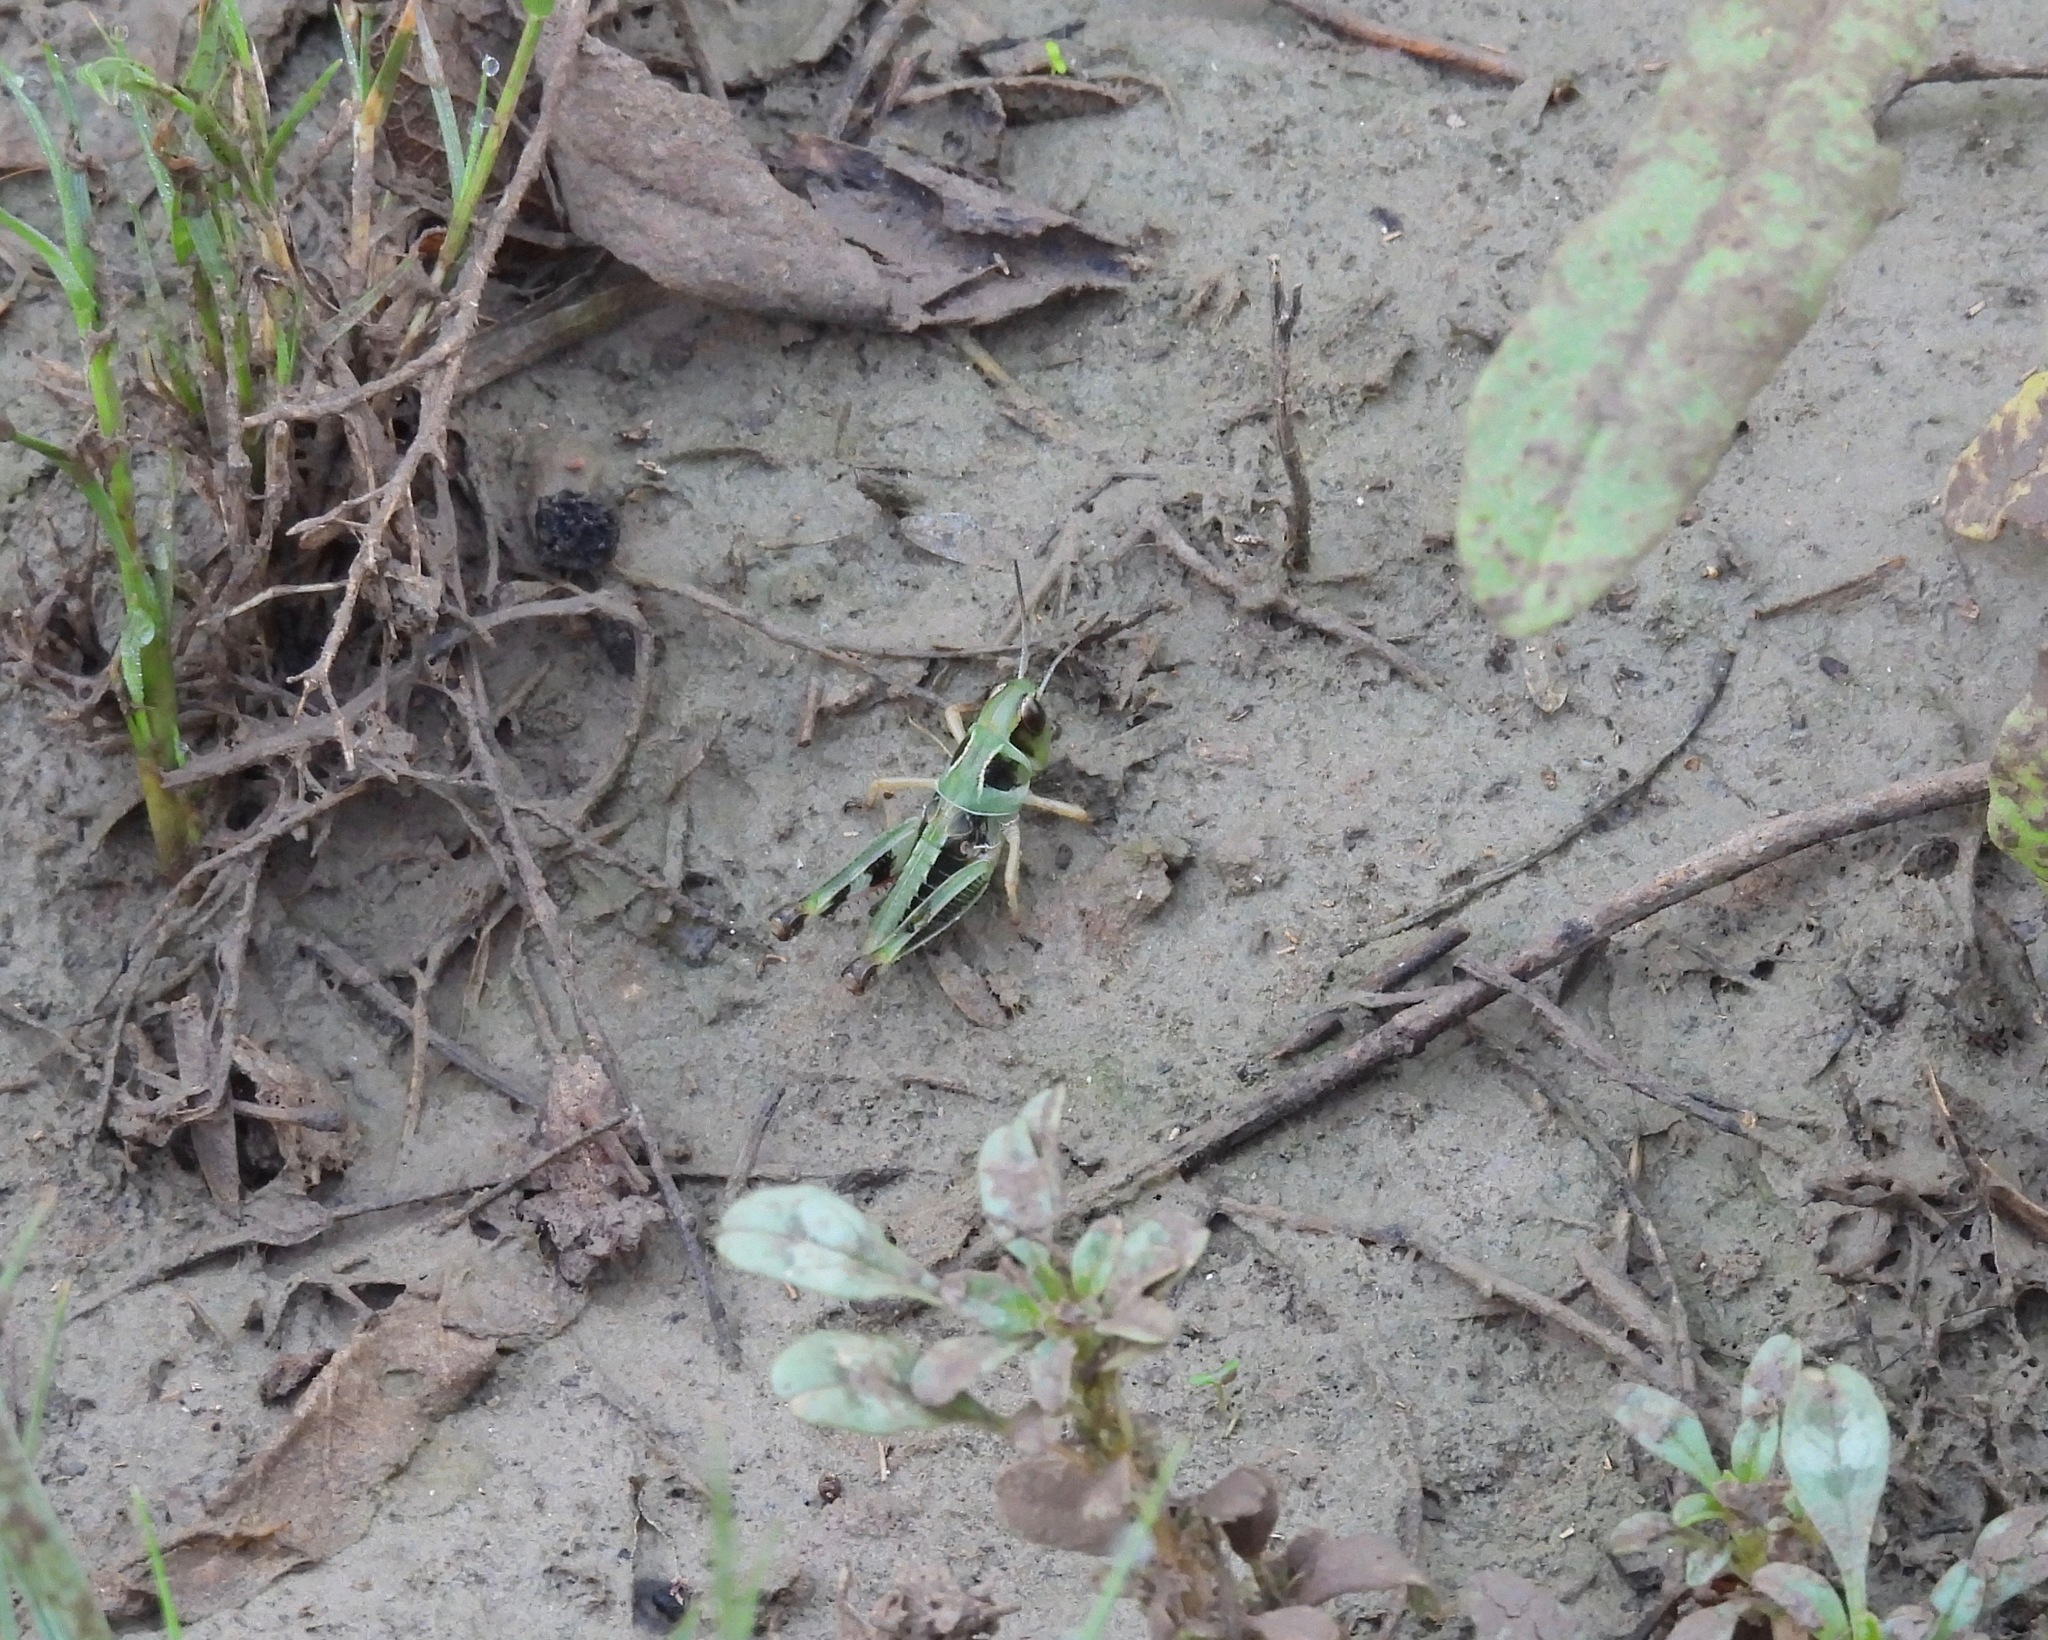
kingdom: Animalia
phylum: Arthropoda
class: Insecta
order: Orthoptera
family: Acrididae
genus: Boopedon
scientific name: Boopedon nubilum
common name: Ebony grasshopper
